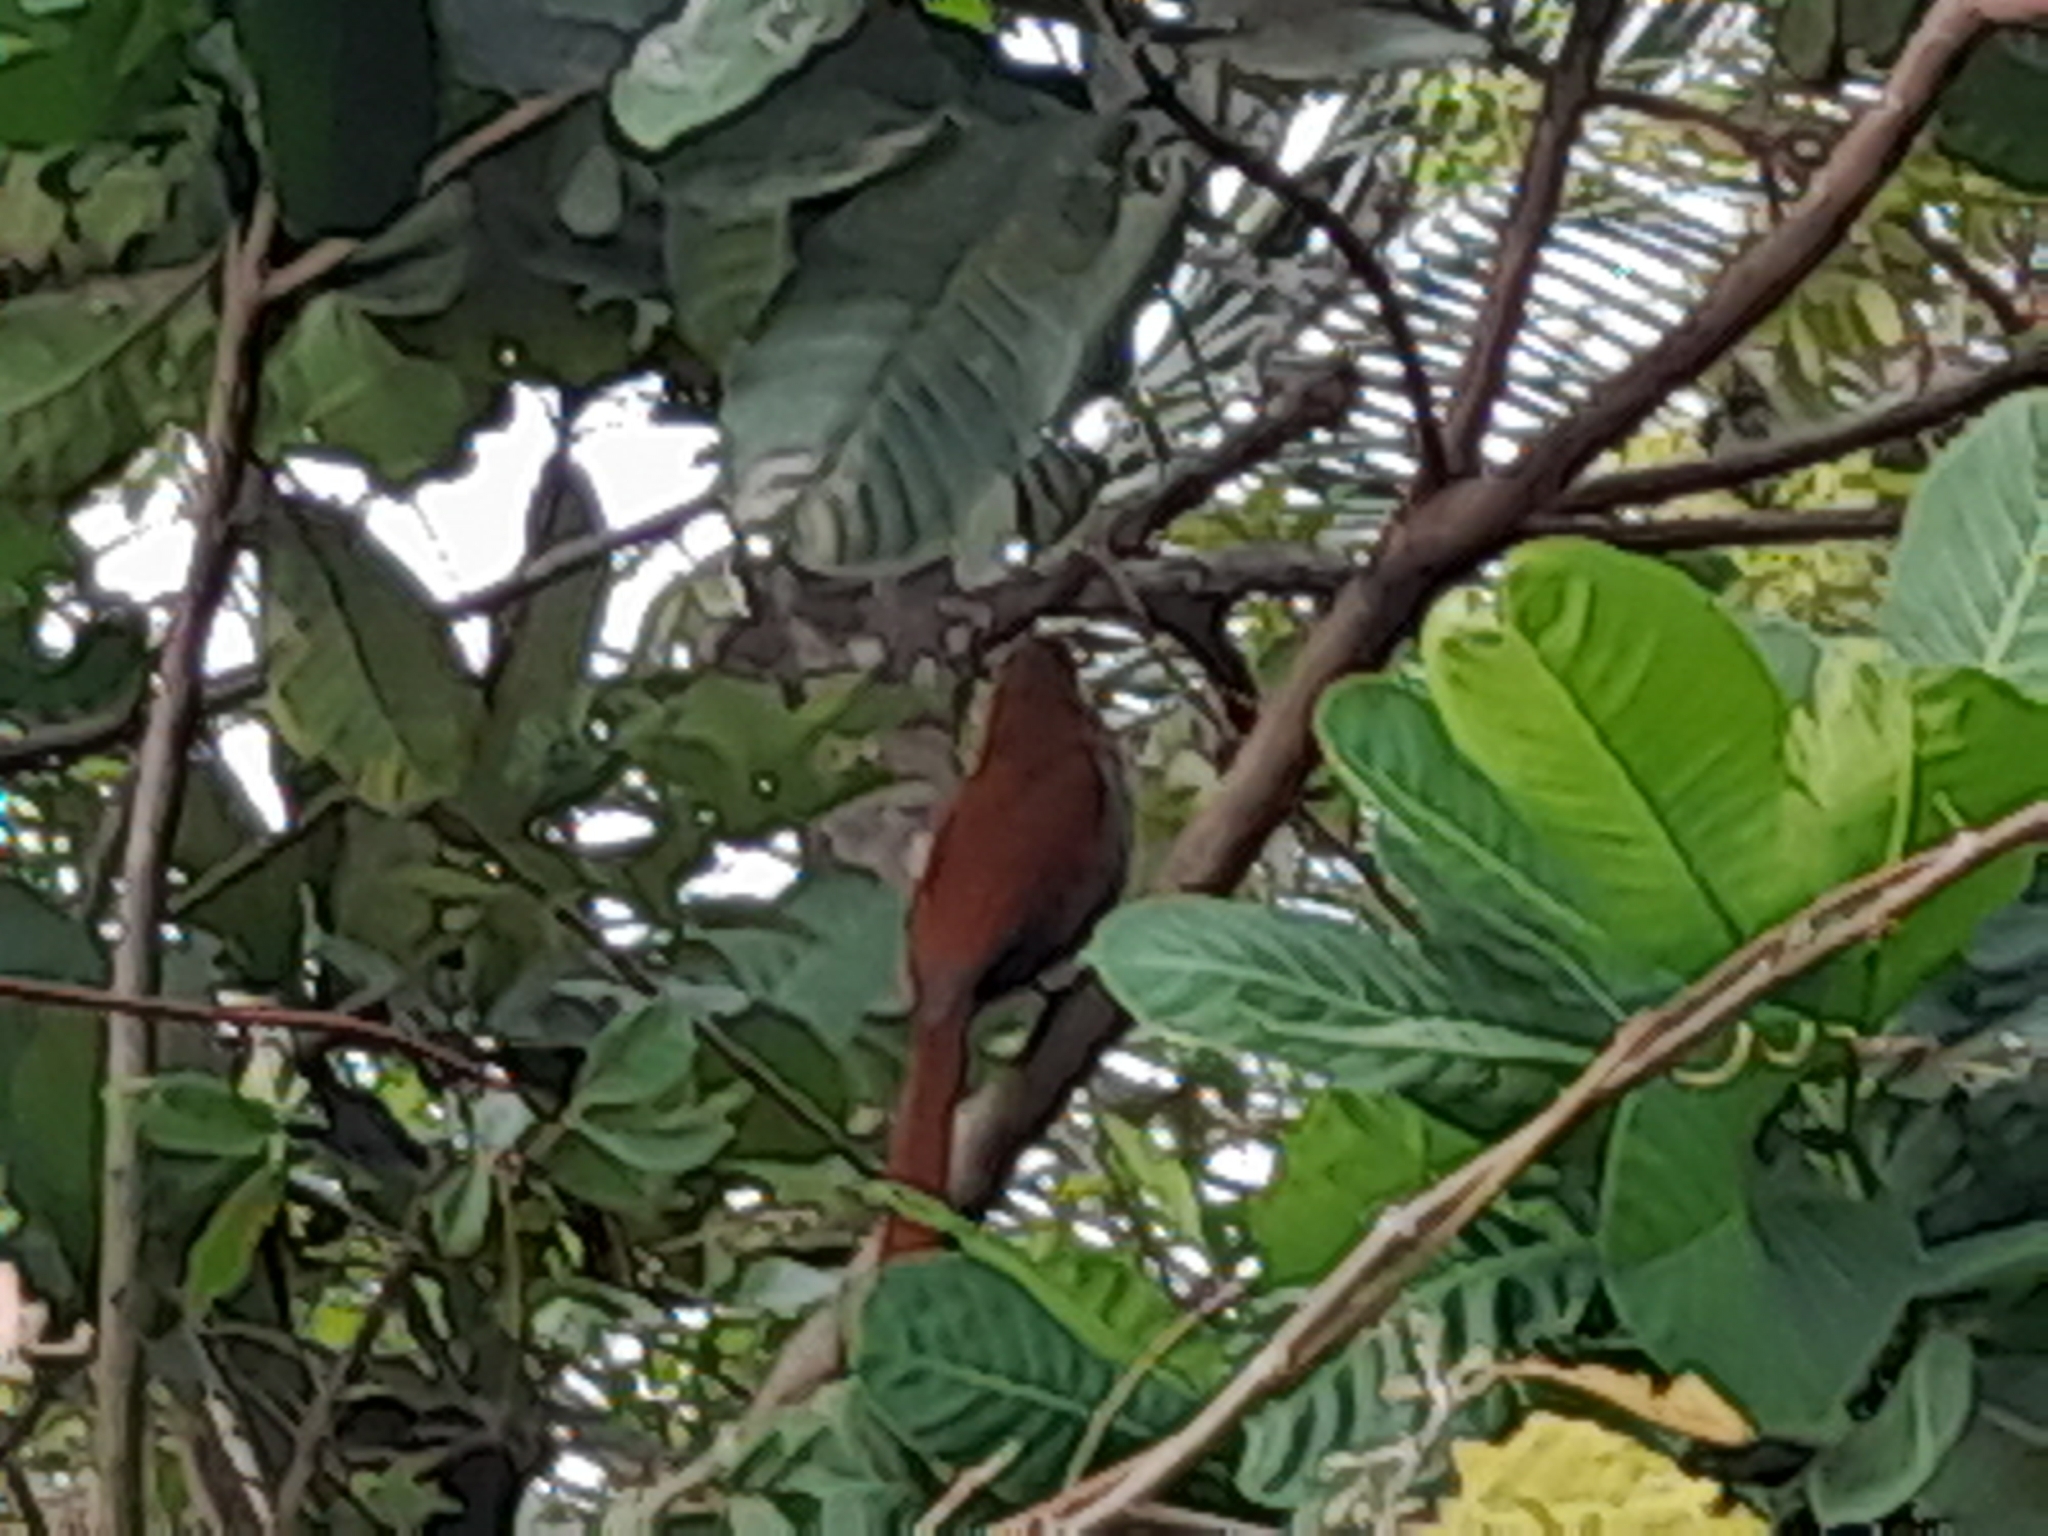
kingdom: Animalia
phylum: Chordata
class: Aves
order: Cuculiformes
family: Cuculidae
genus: Piaya
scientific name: Piaya cayana
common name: Squirrel cuckoo
